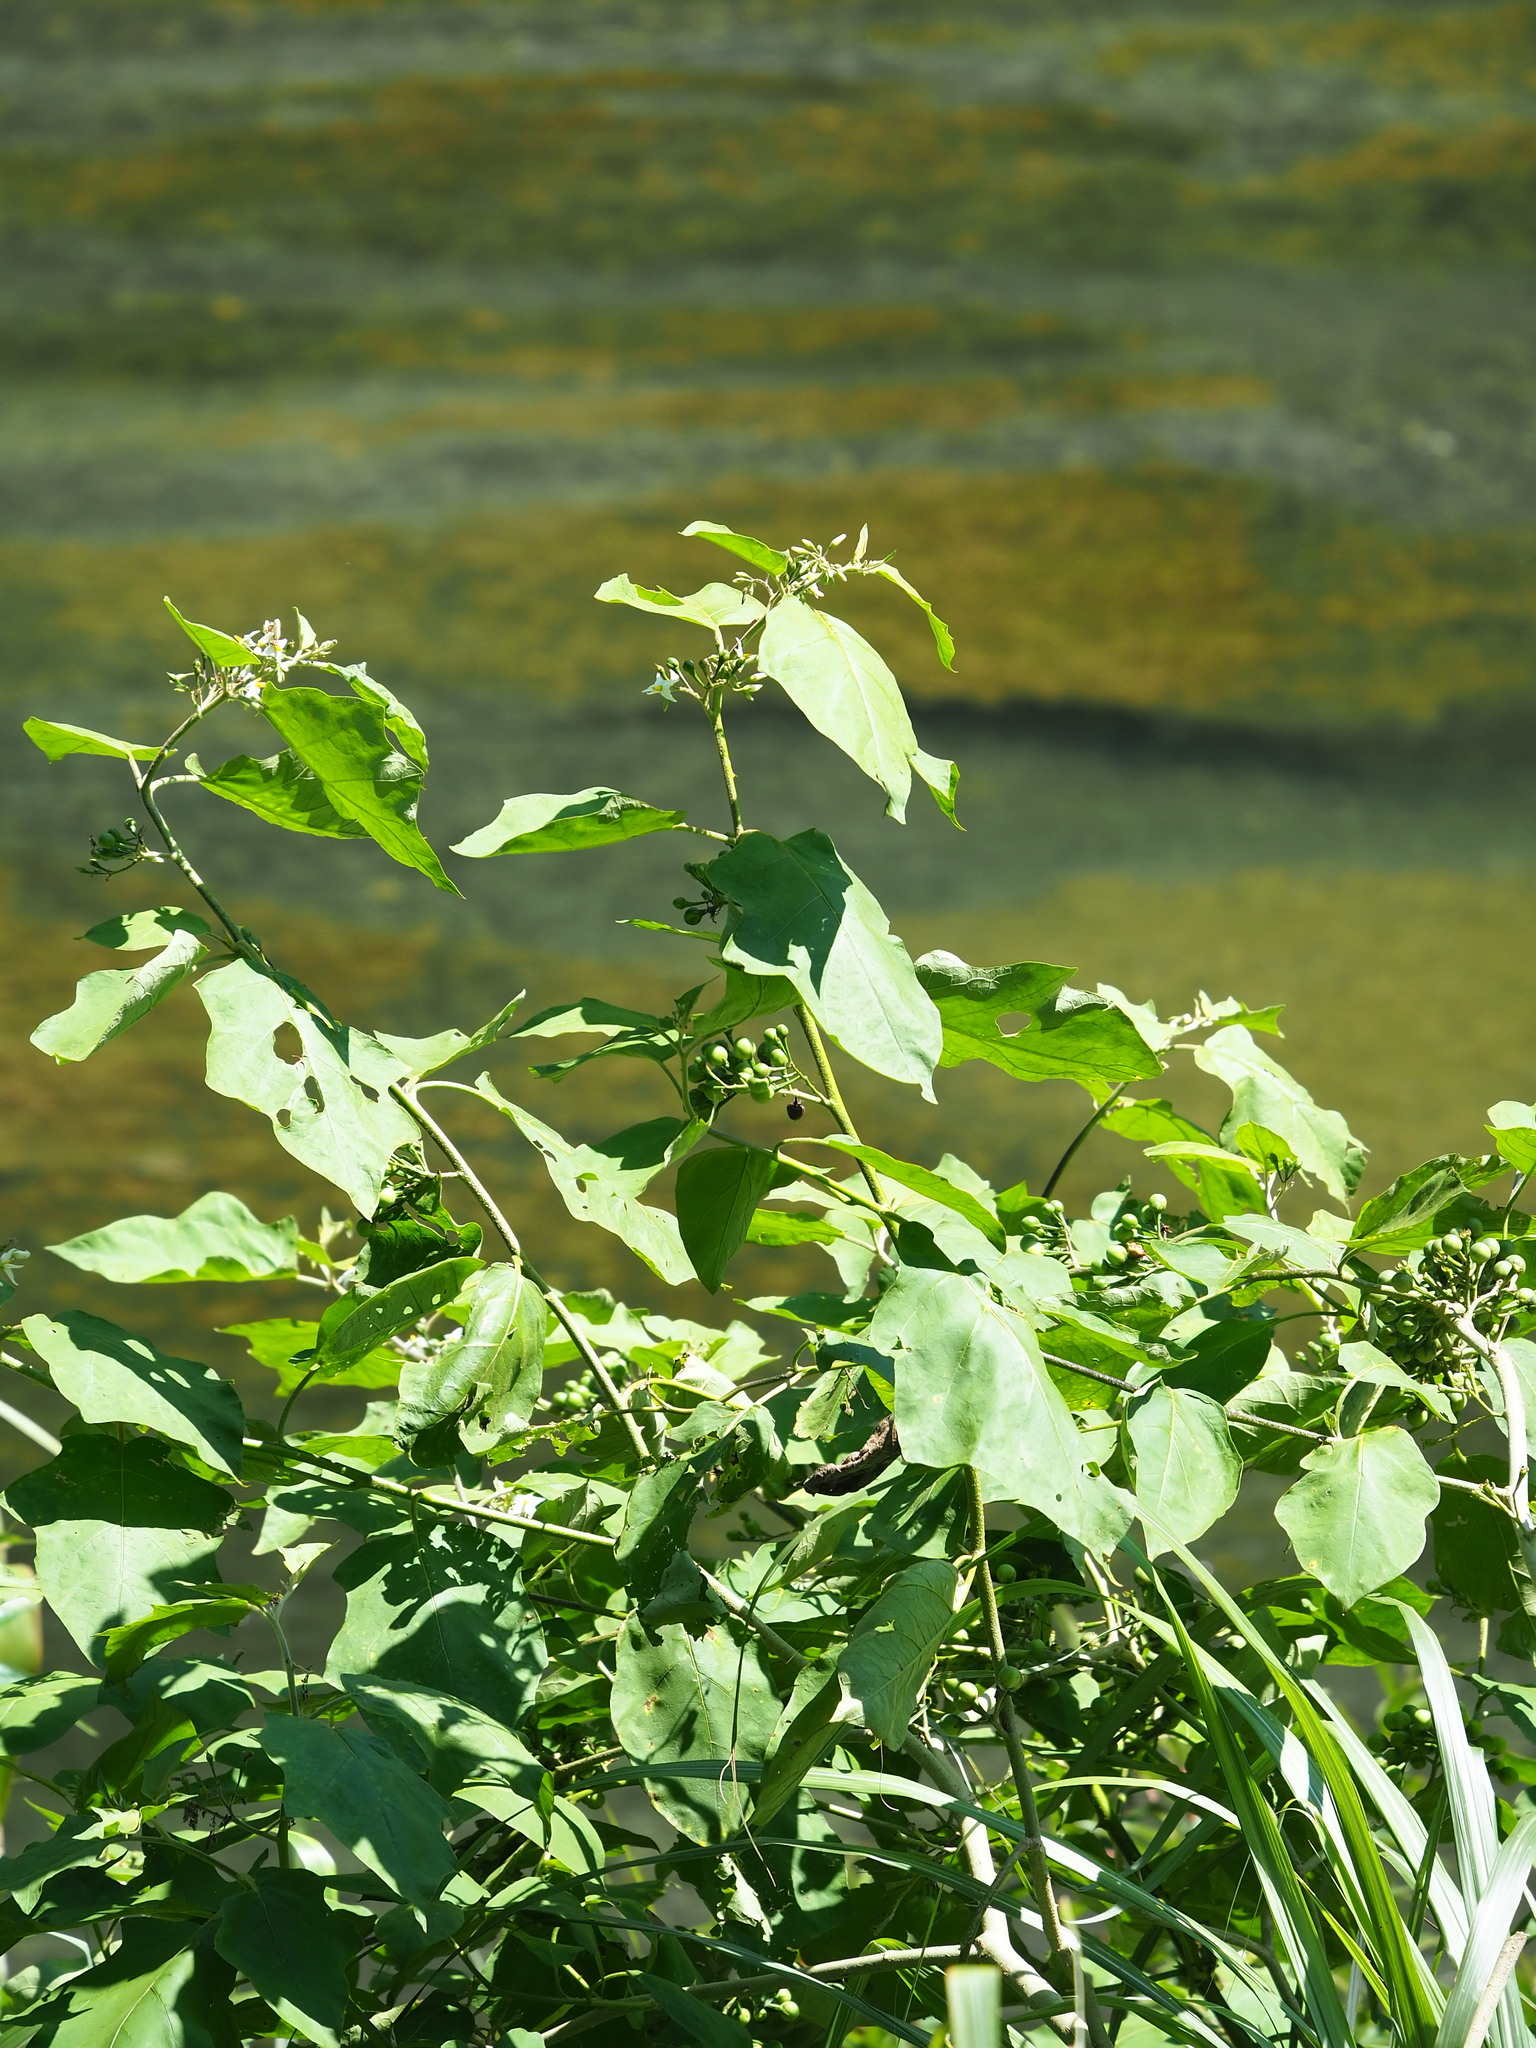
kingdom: Plantae
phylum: Tracheophyta
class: Magnoliopsida
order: Solanales
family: Solanaceae
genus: Solanum
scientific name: Solanum torvum
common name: Turkey berry
